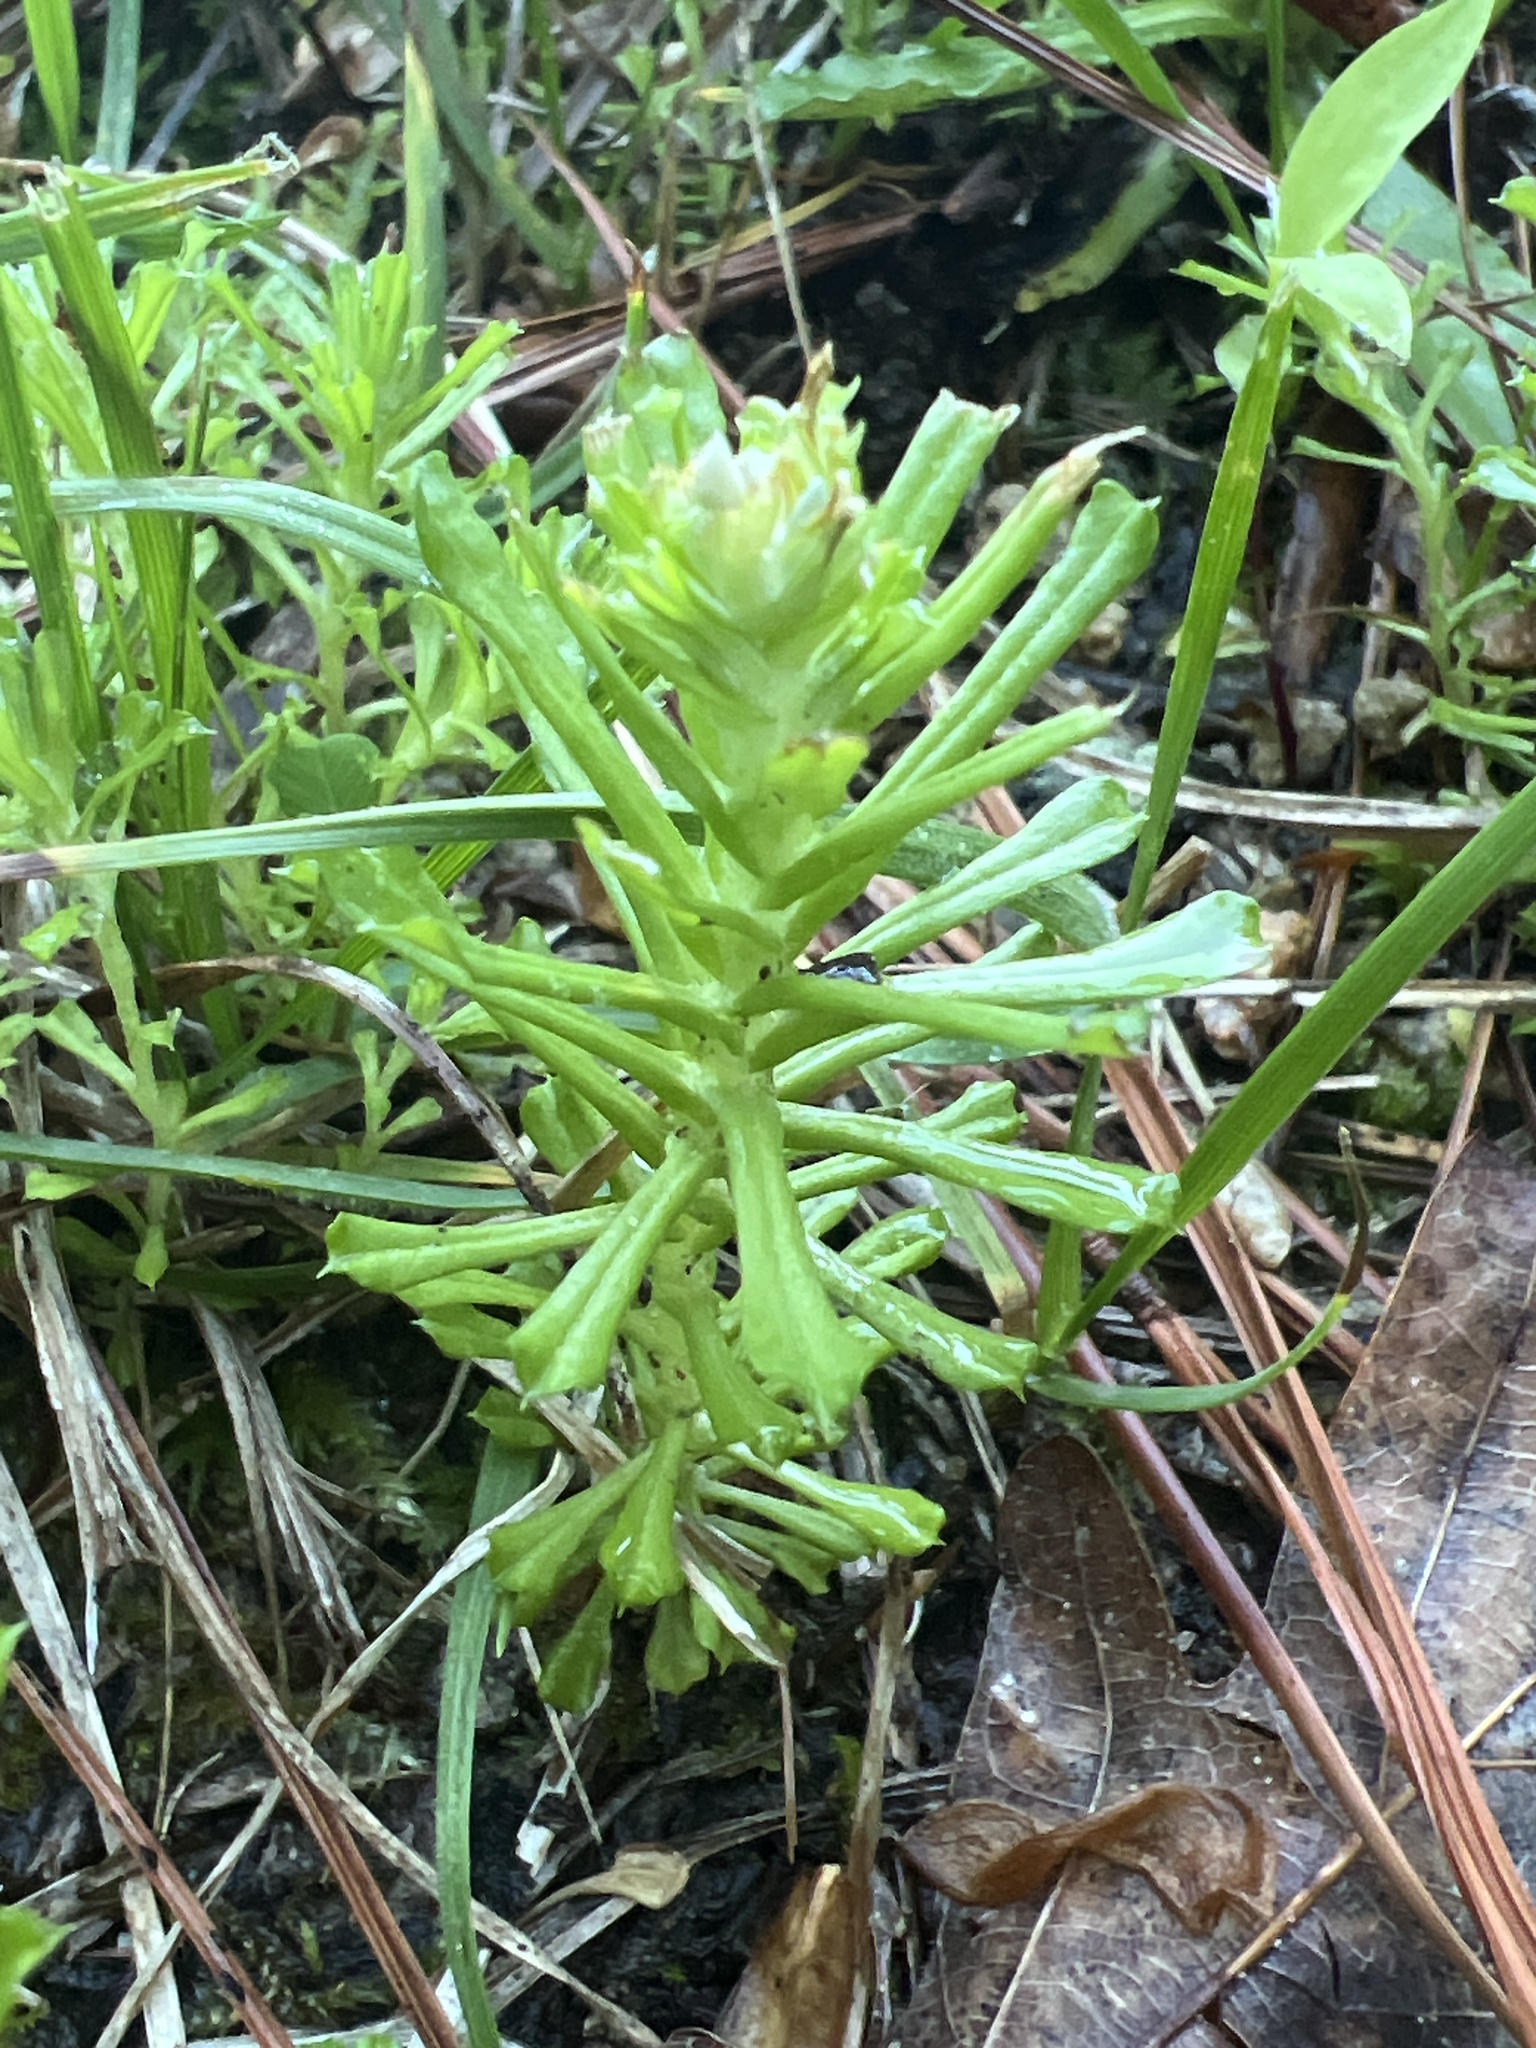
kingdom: Plantae
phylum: Tracheophyta
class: Magnoliopsida
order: Asterales
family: Asteraceae
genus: Facelis
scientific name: Facelis retusa
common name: Annual trampweed
